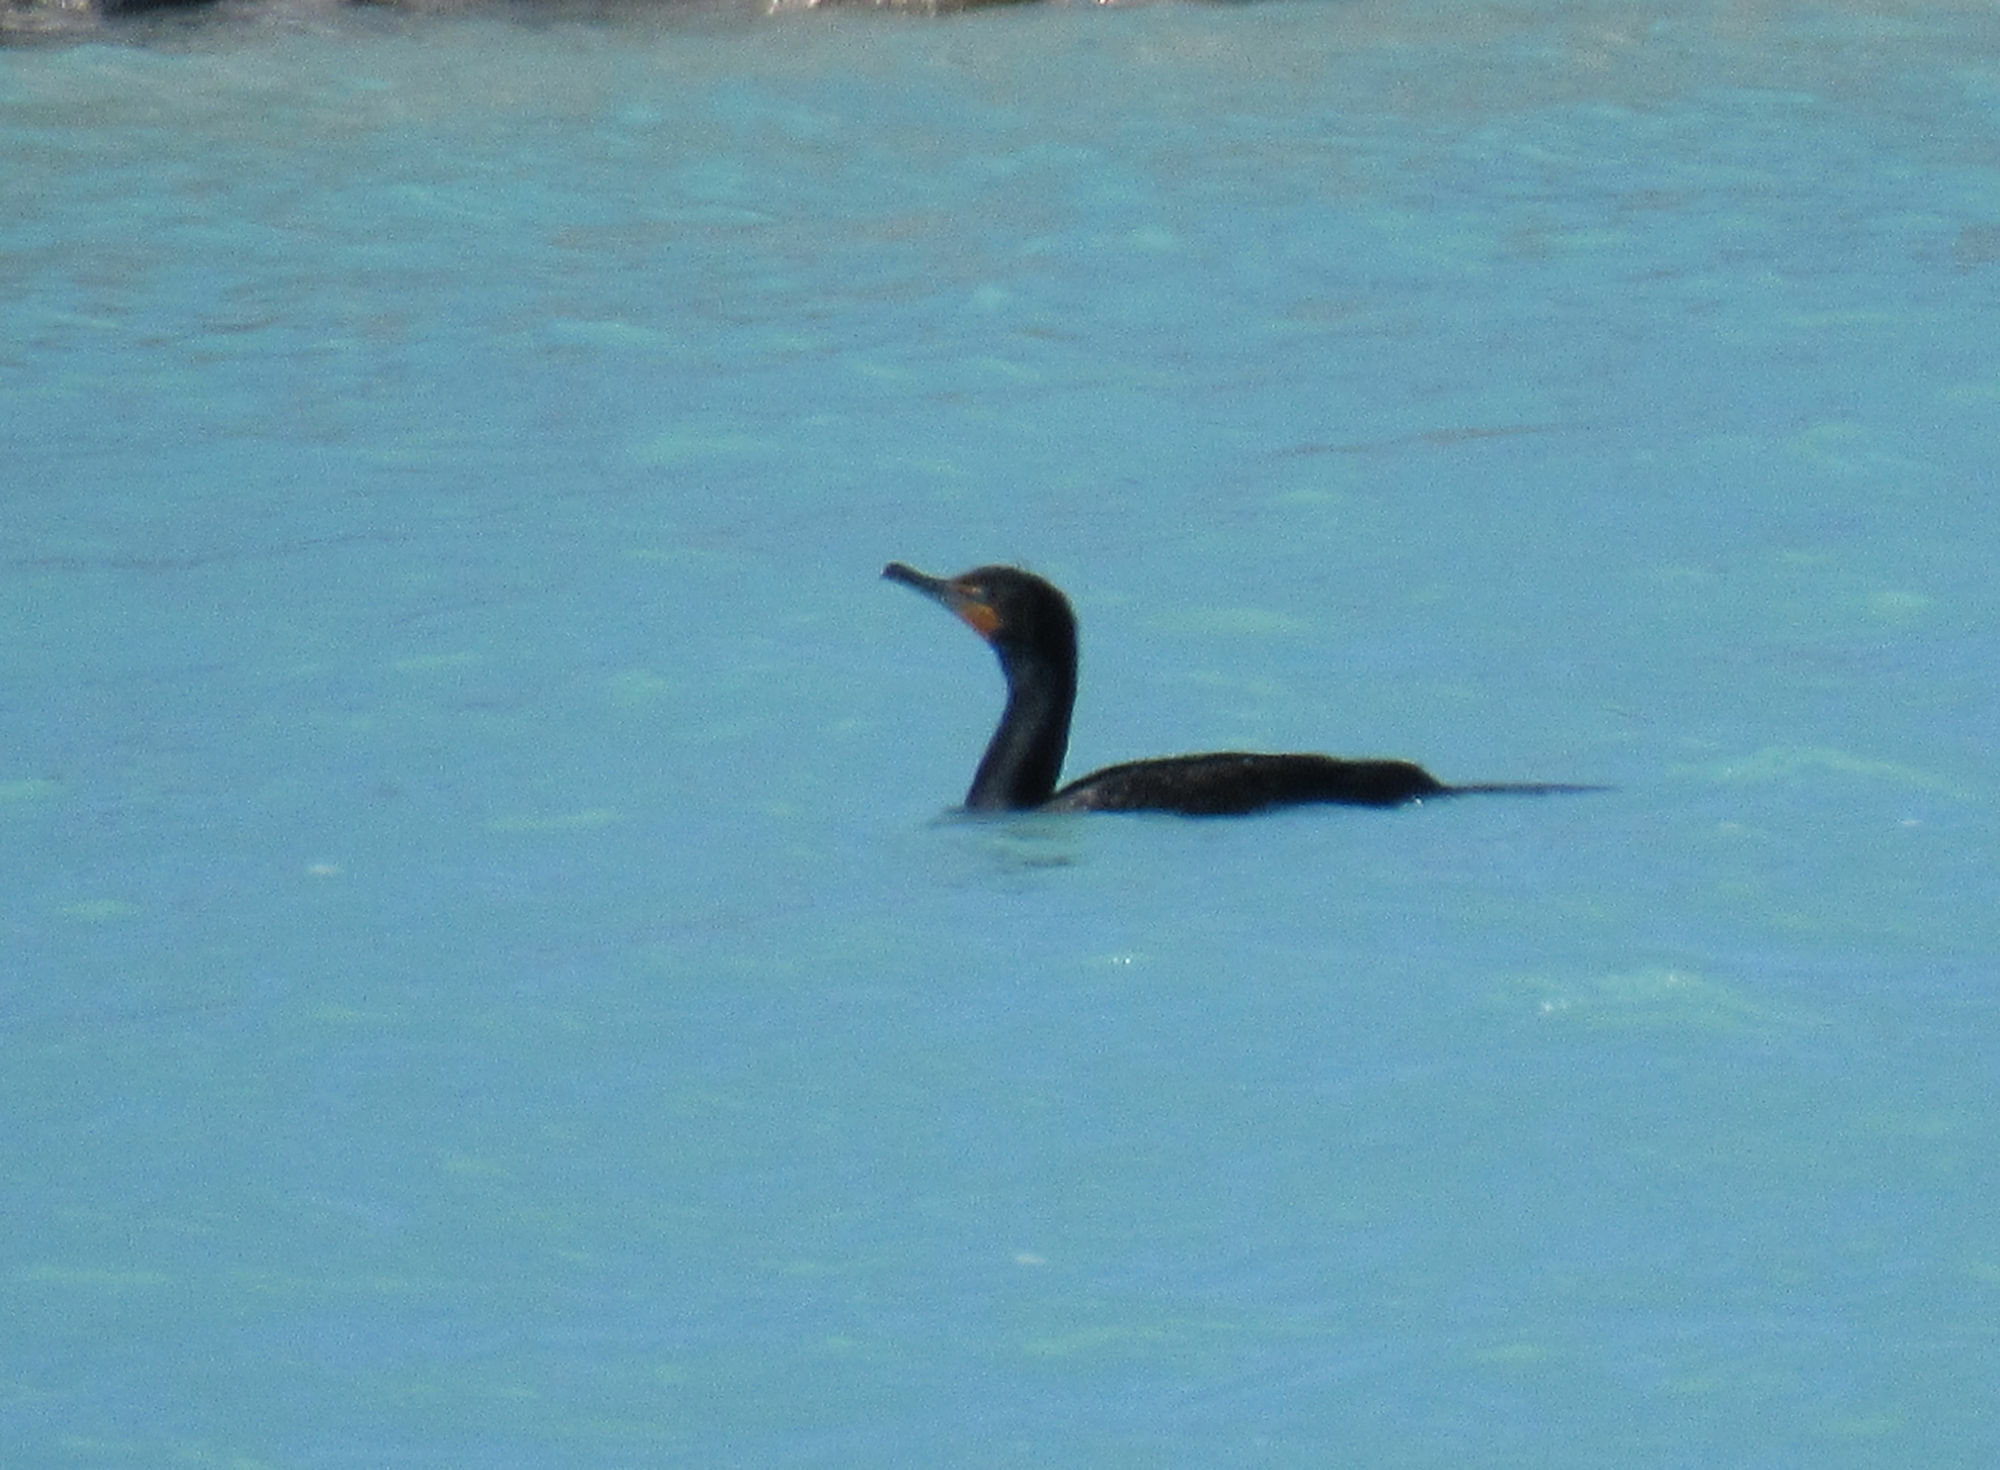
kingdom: Animalia
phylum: Chordata
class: Aves
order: Suliformes
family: Phalacrocoracidae
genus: Phalacrocorax
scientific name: Phalacrocorax auritus
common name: Double-crested cormorant
